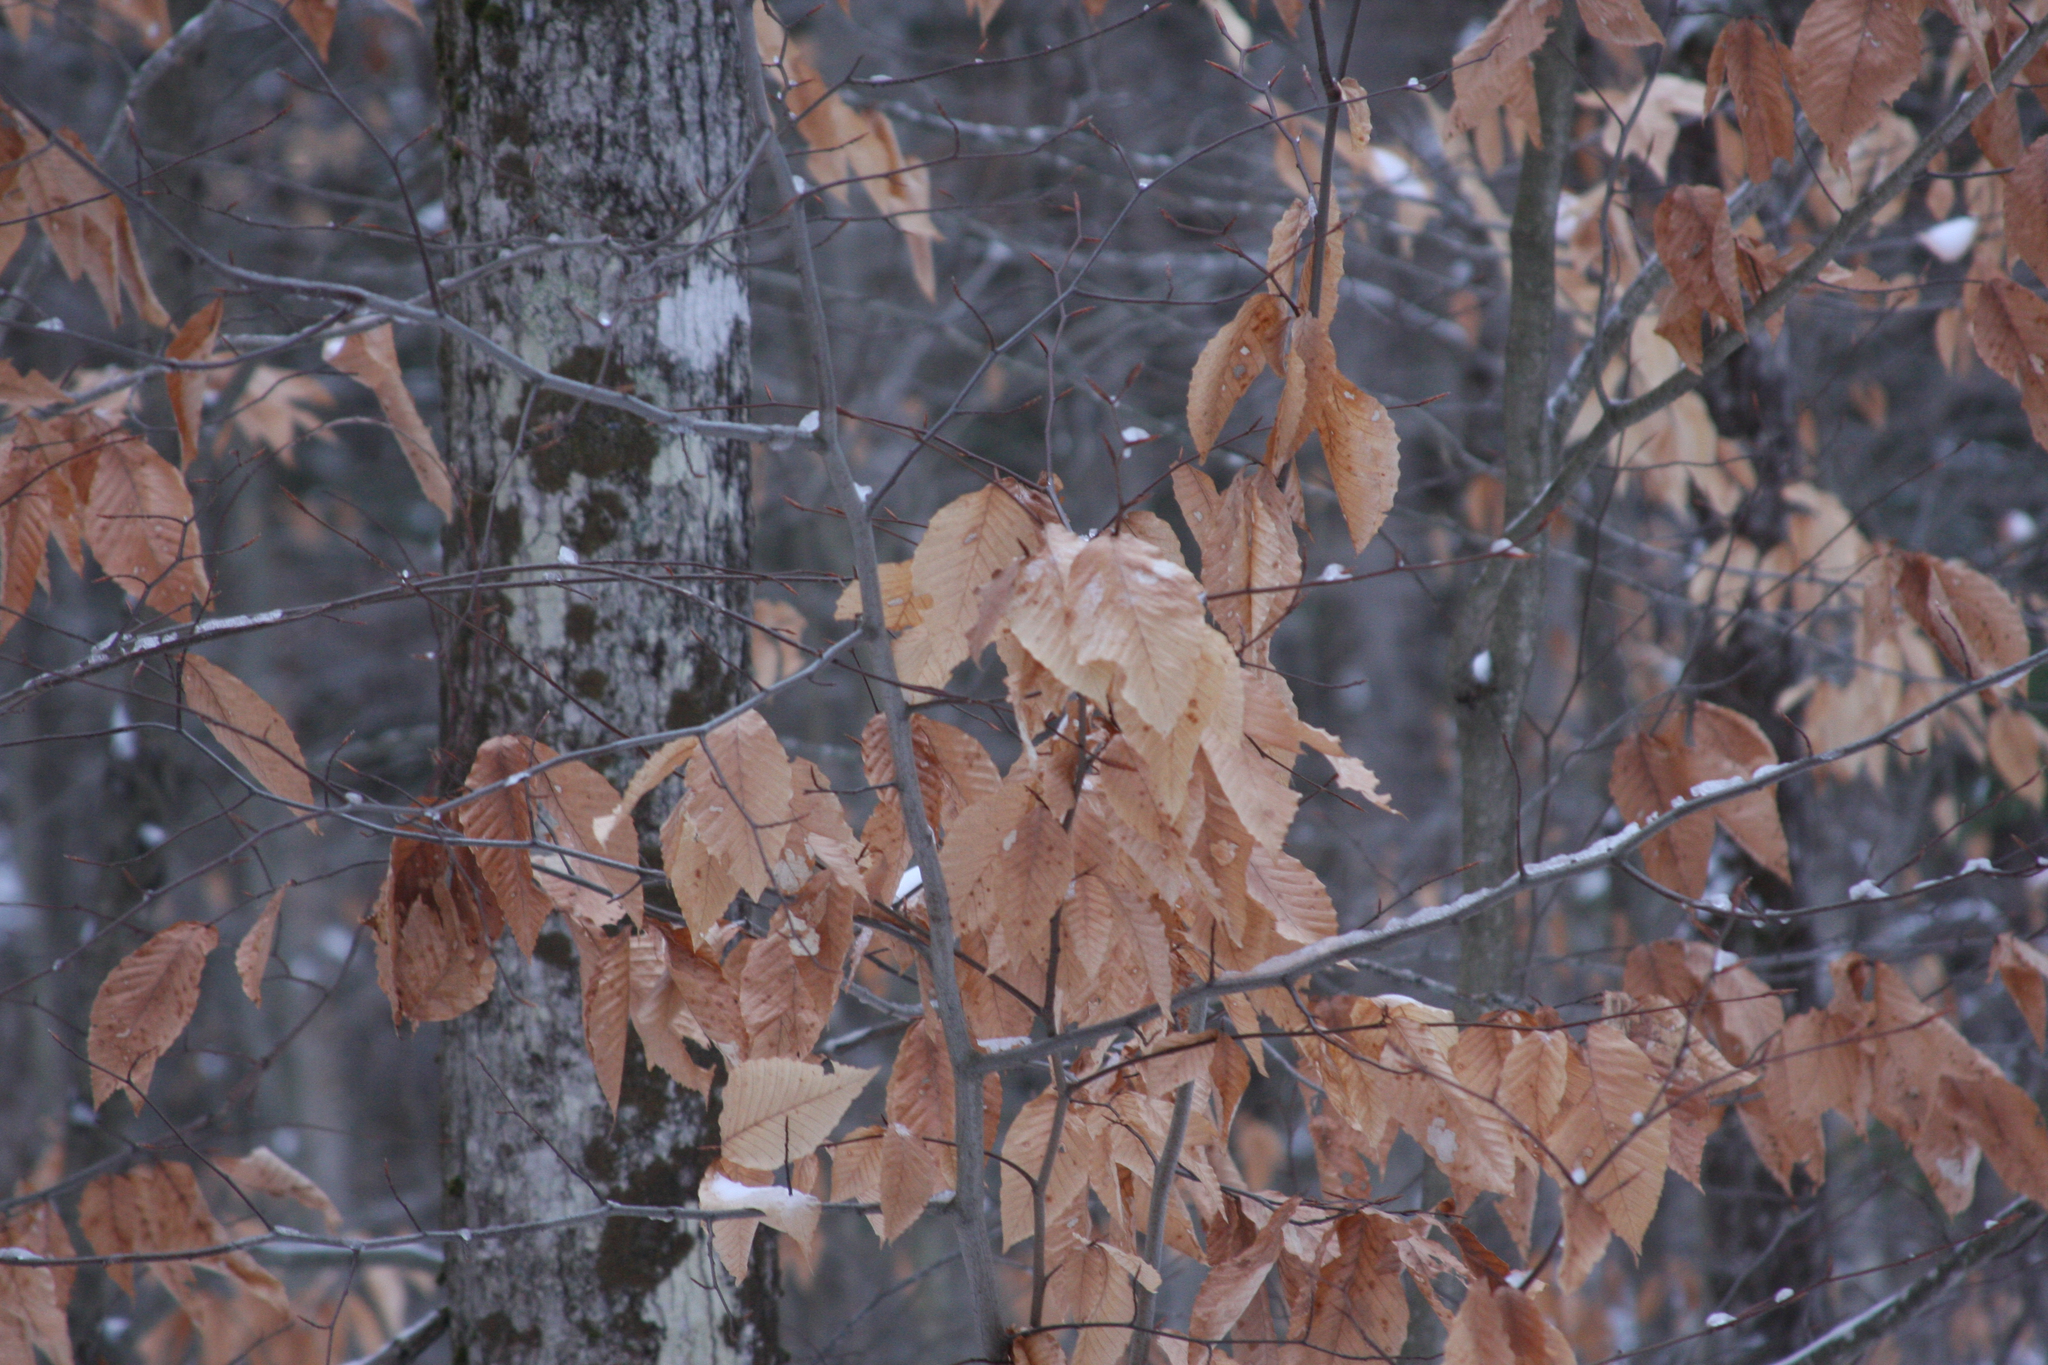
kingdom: Plantae
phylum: Tracheophyta
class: Magnoliopsida
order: Fagales
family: Fagaceae
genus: Fagus
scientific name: Fagus grandifolia
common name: American beech
